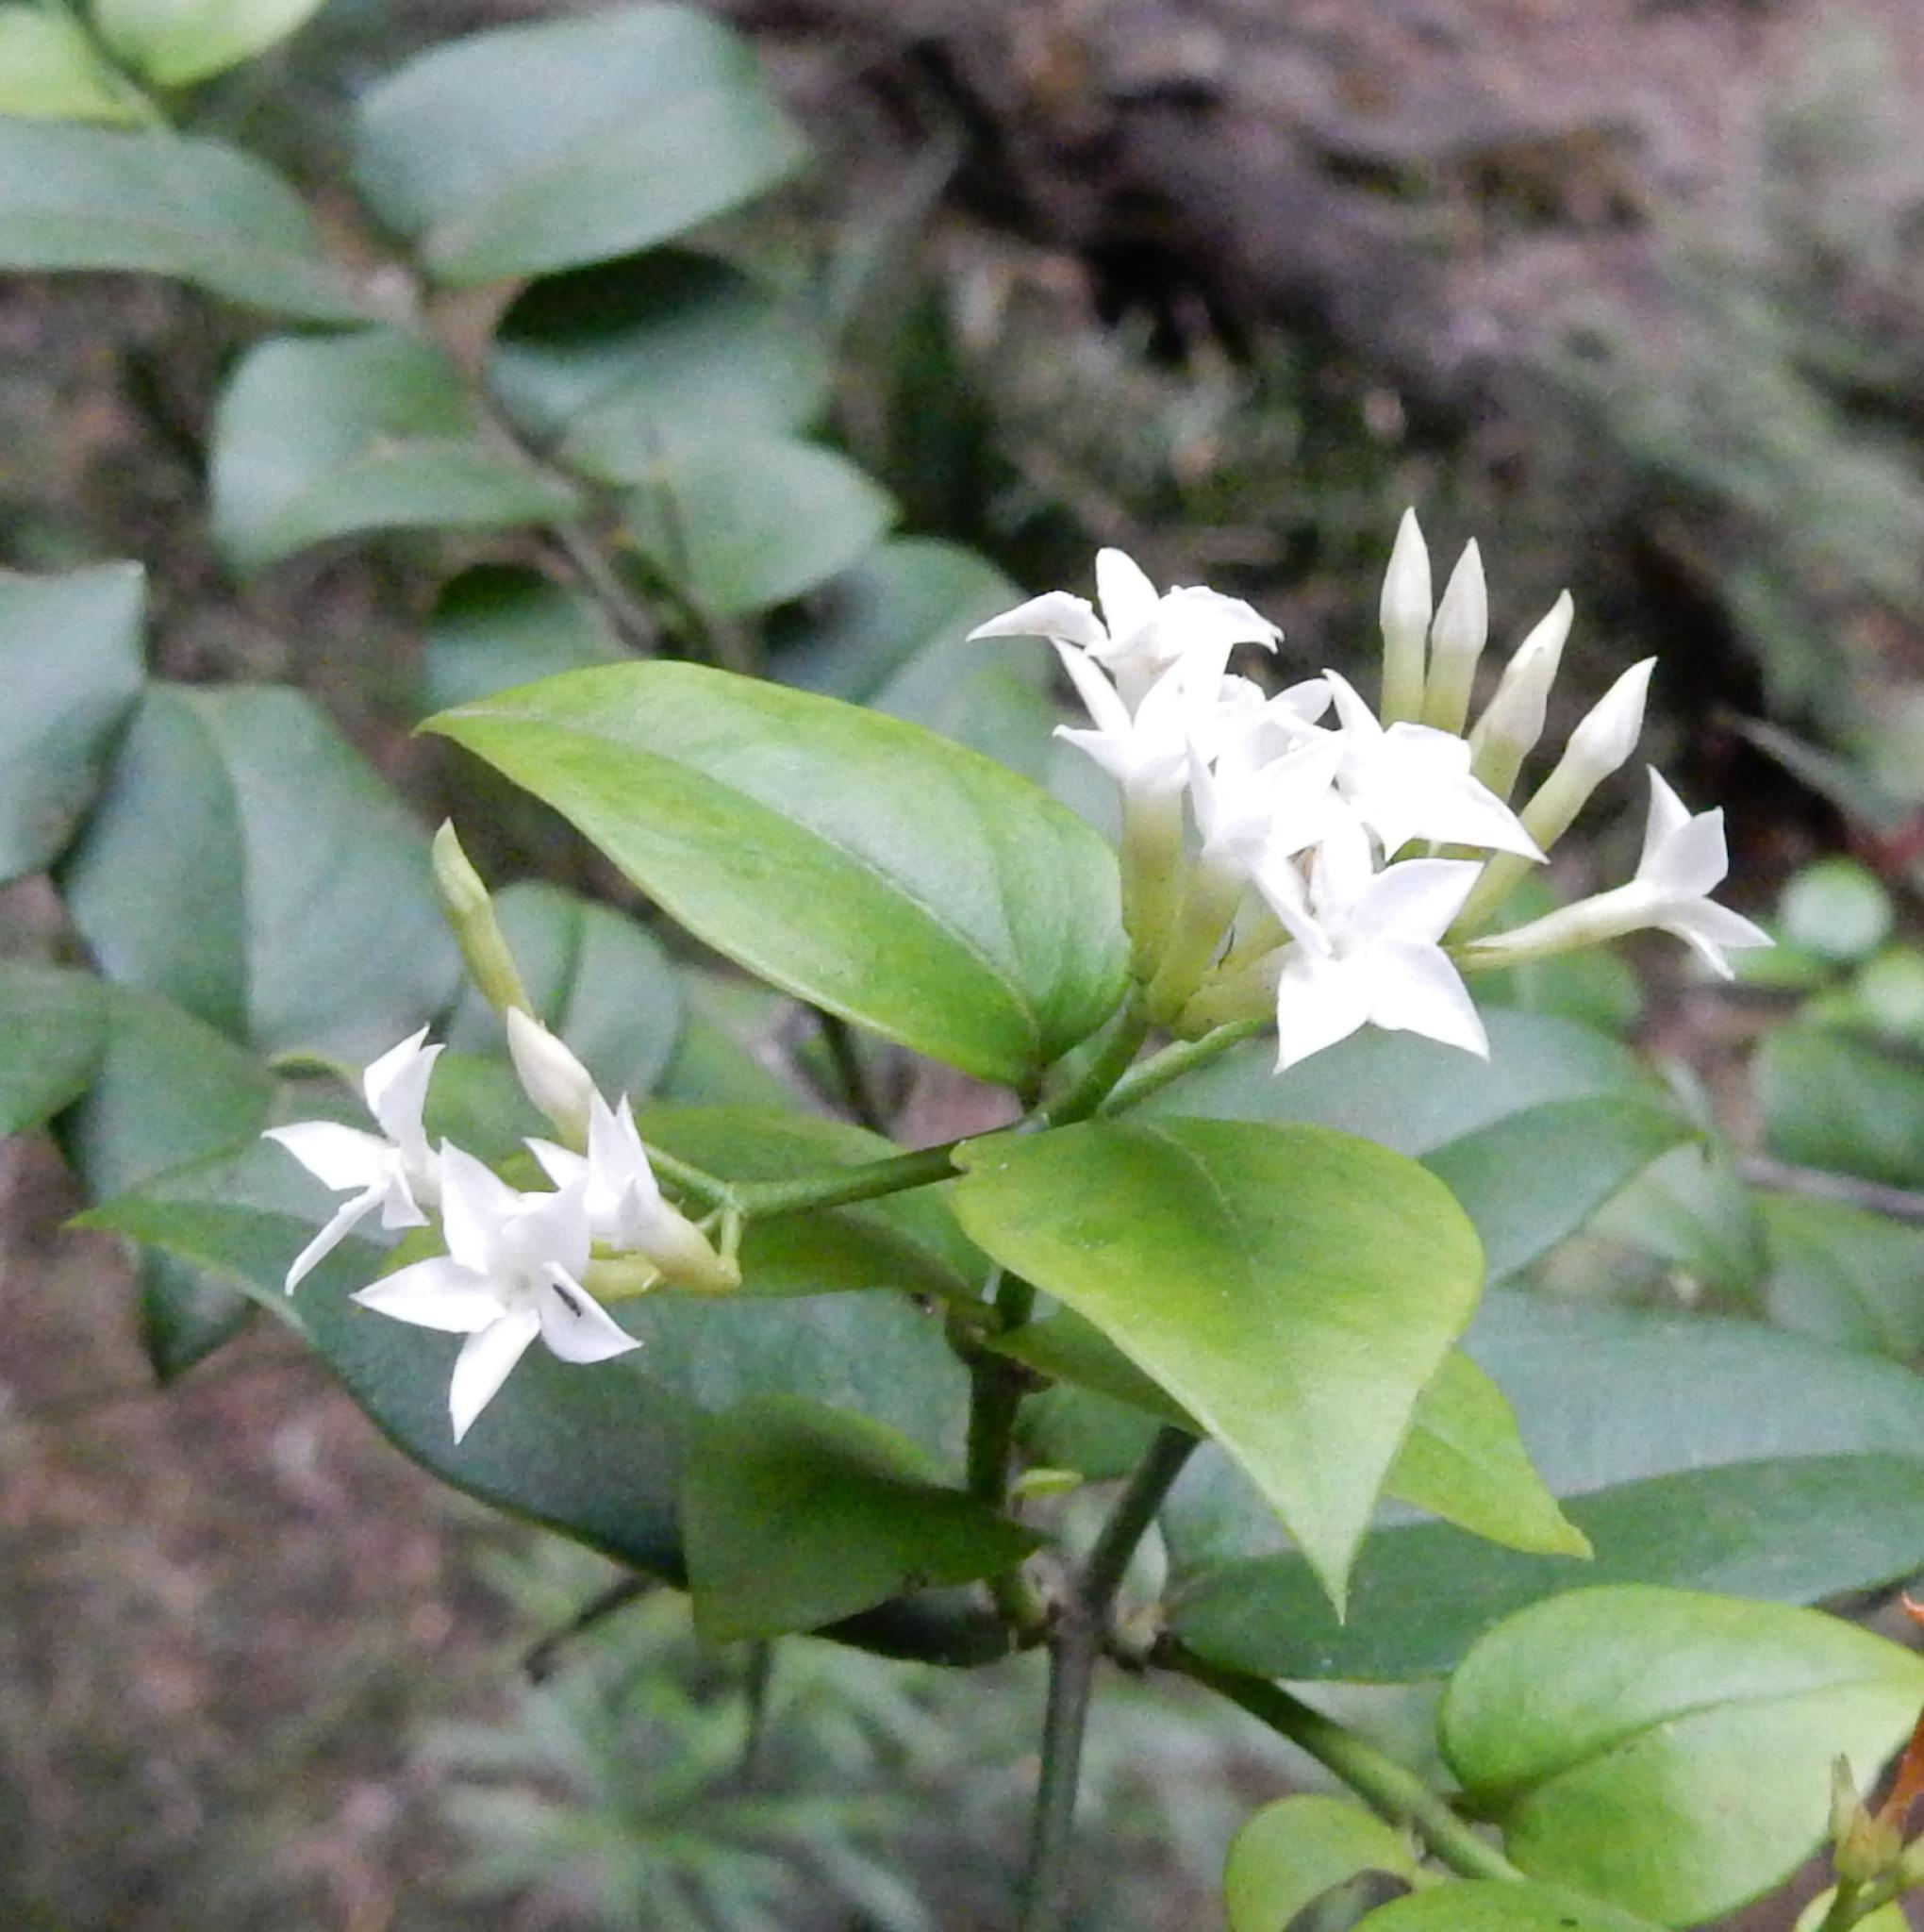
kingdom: Plantae
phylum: Tracheophyta
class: Magnoliopsida
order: Gentianales
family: Apocynaceae
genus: Carissa
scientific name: Carissa bispinosa
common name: Forest num-num
